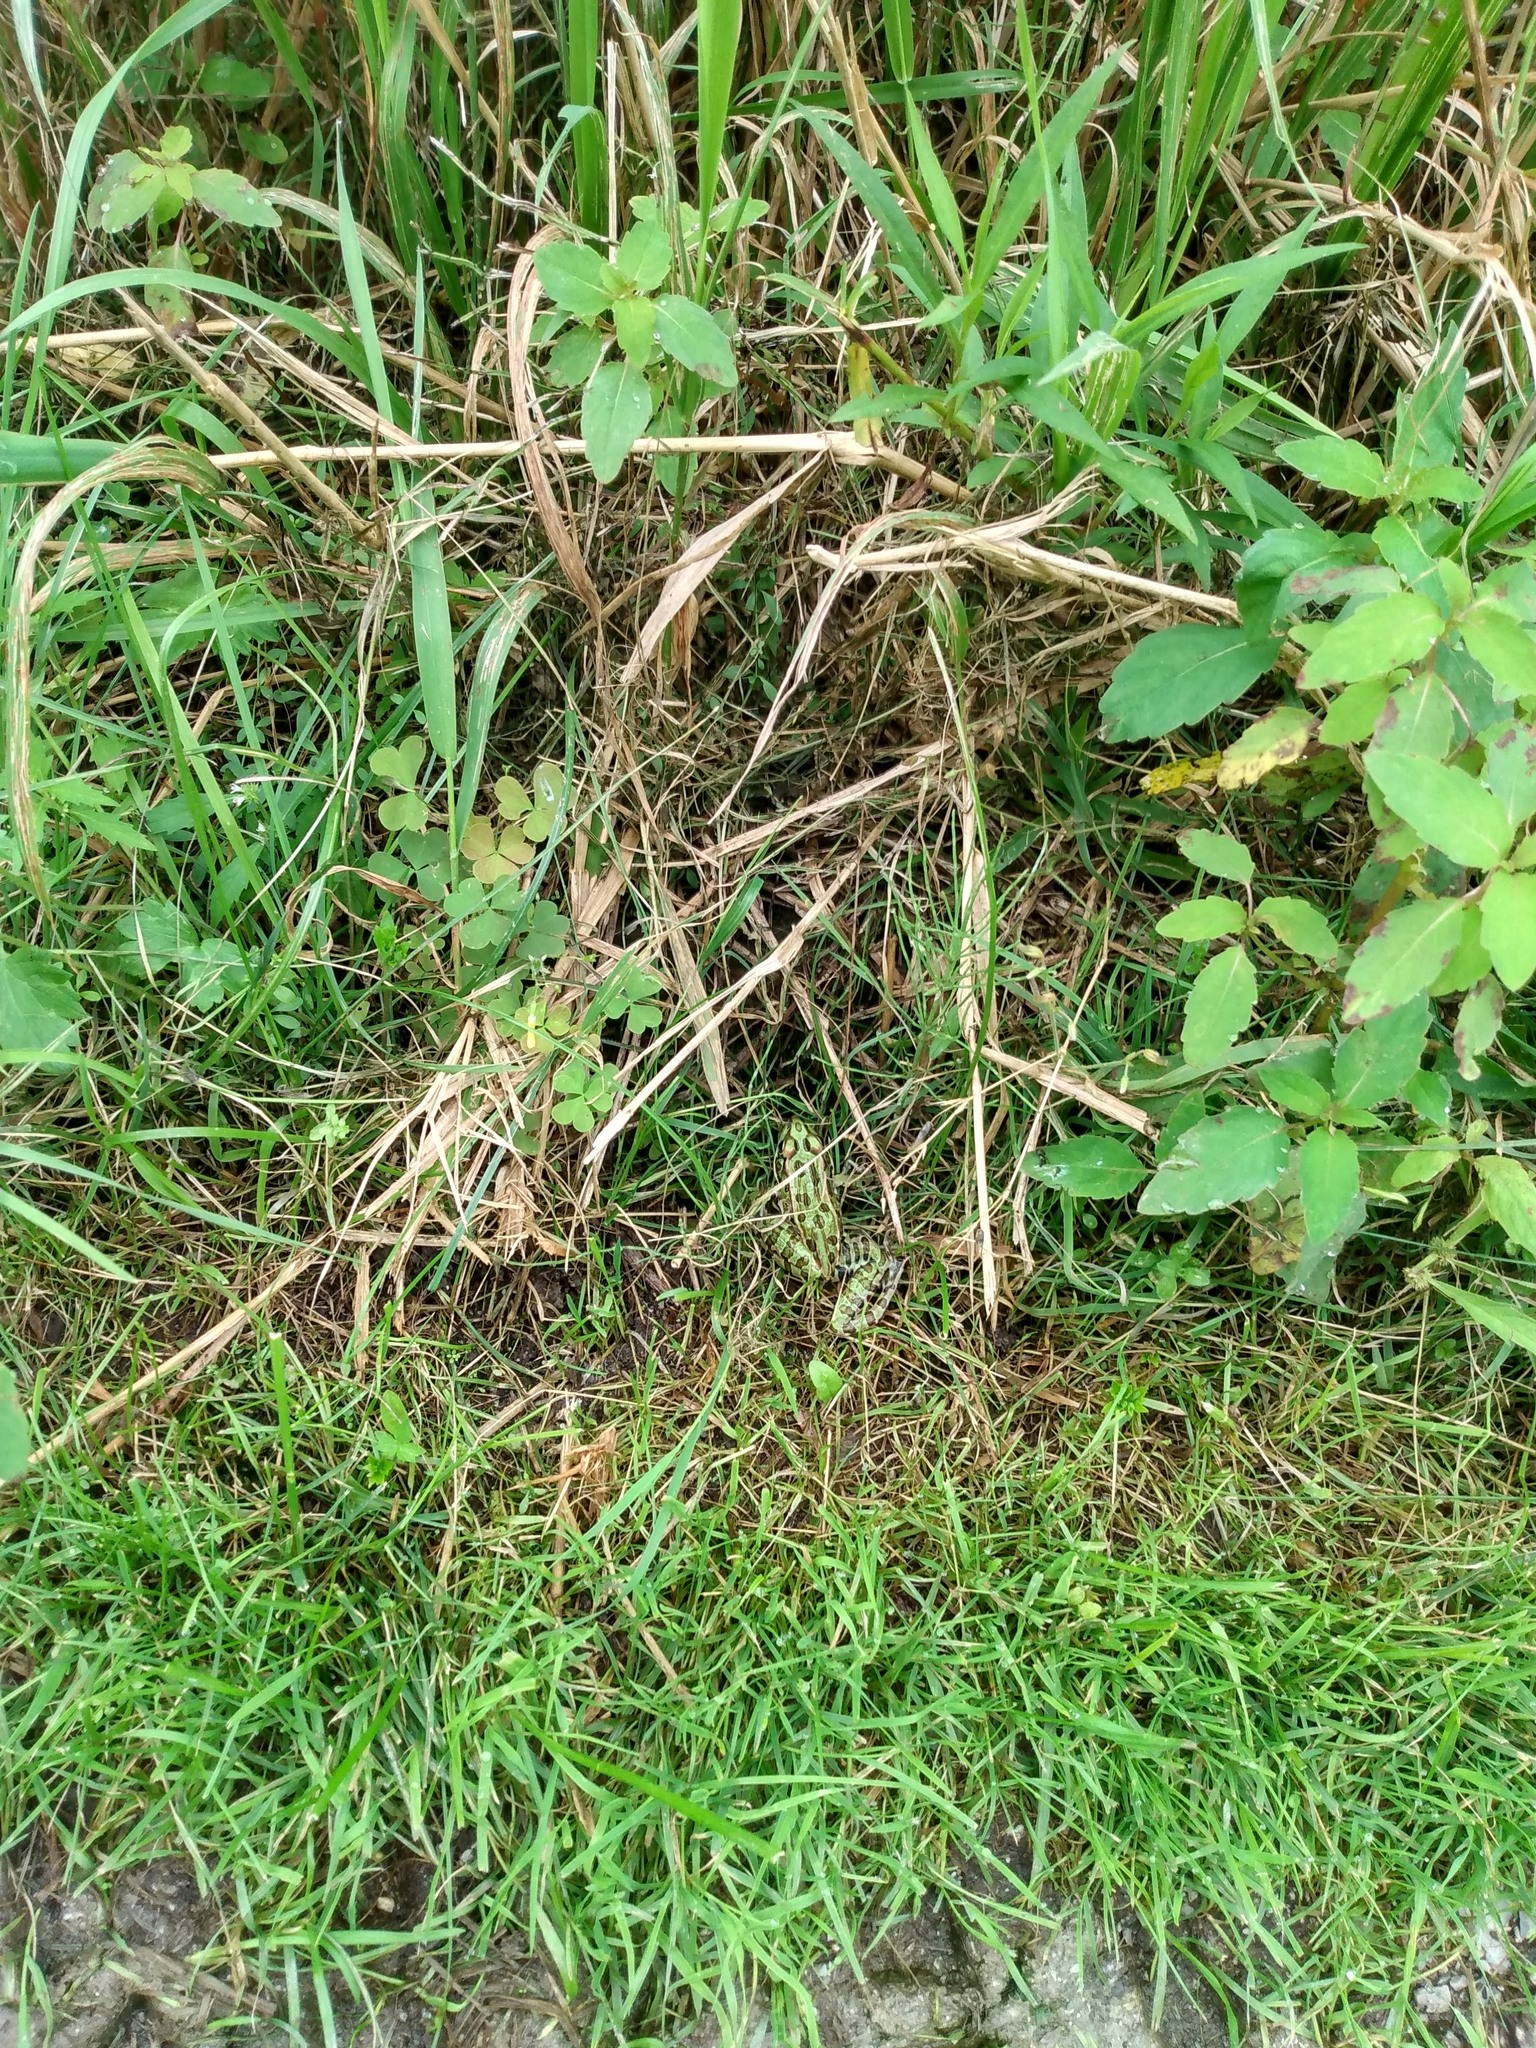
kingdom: Animalia
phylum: Chordata
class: Amphibia
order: Anura
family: Ranidae
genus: Lithobates
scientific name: Lithobates pipiens
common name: Northern leopard frog
